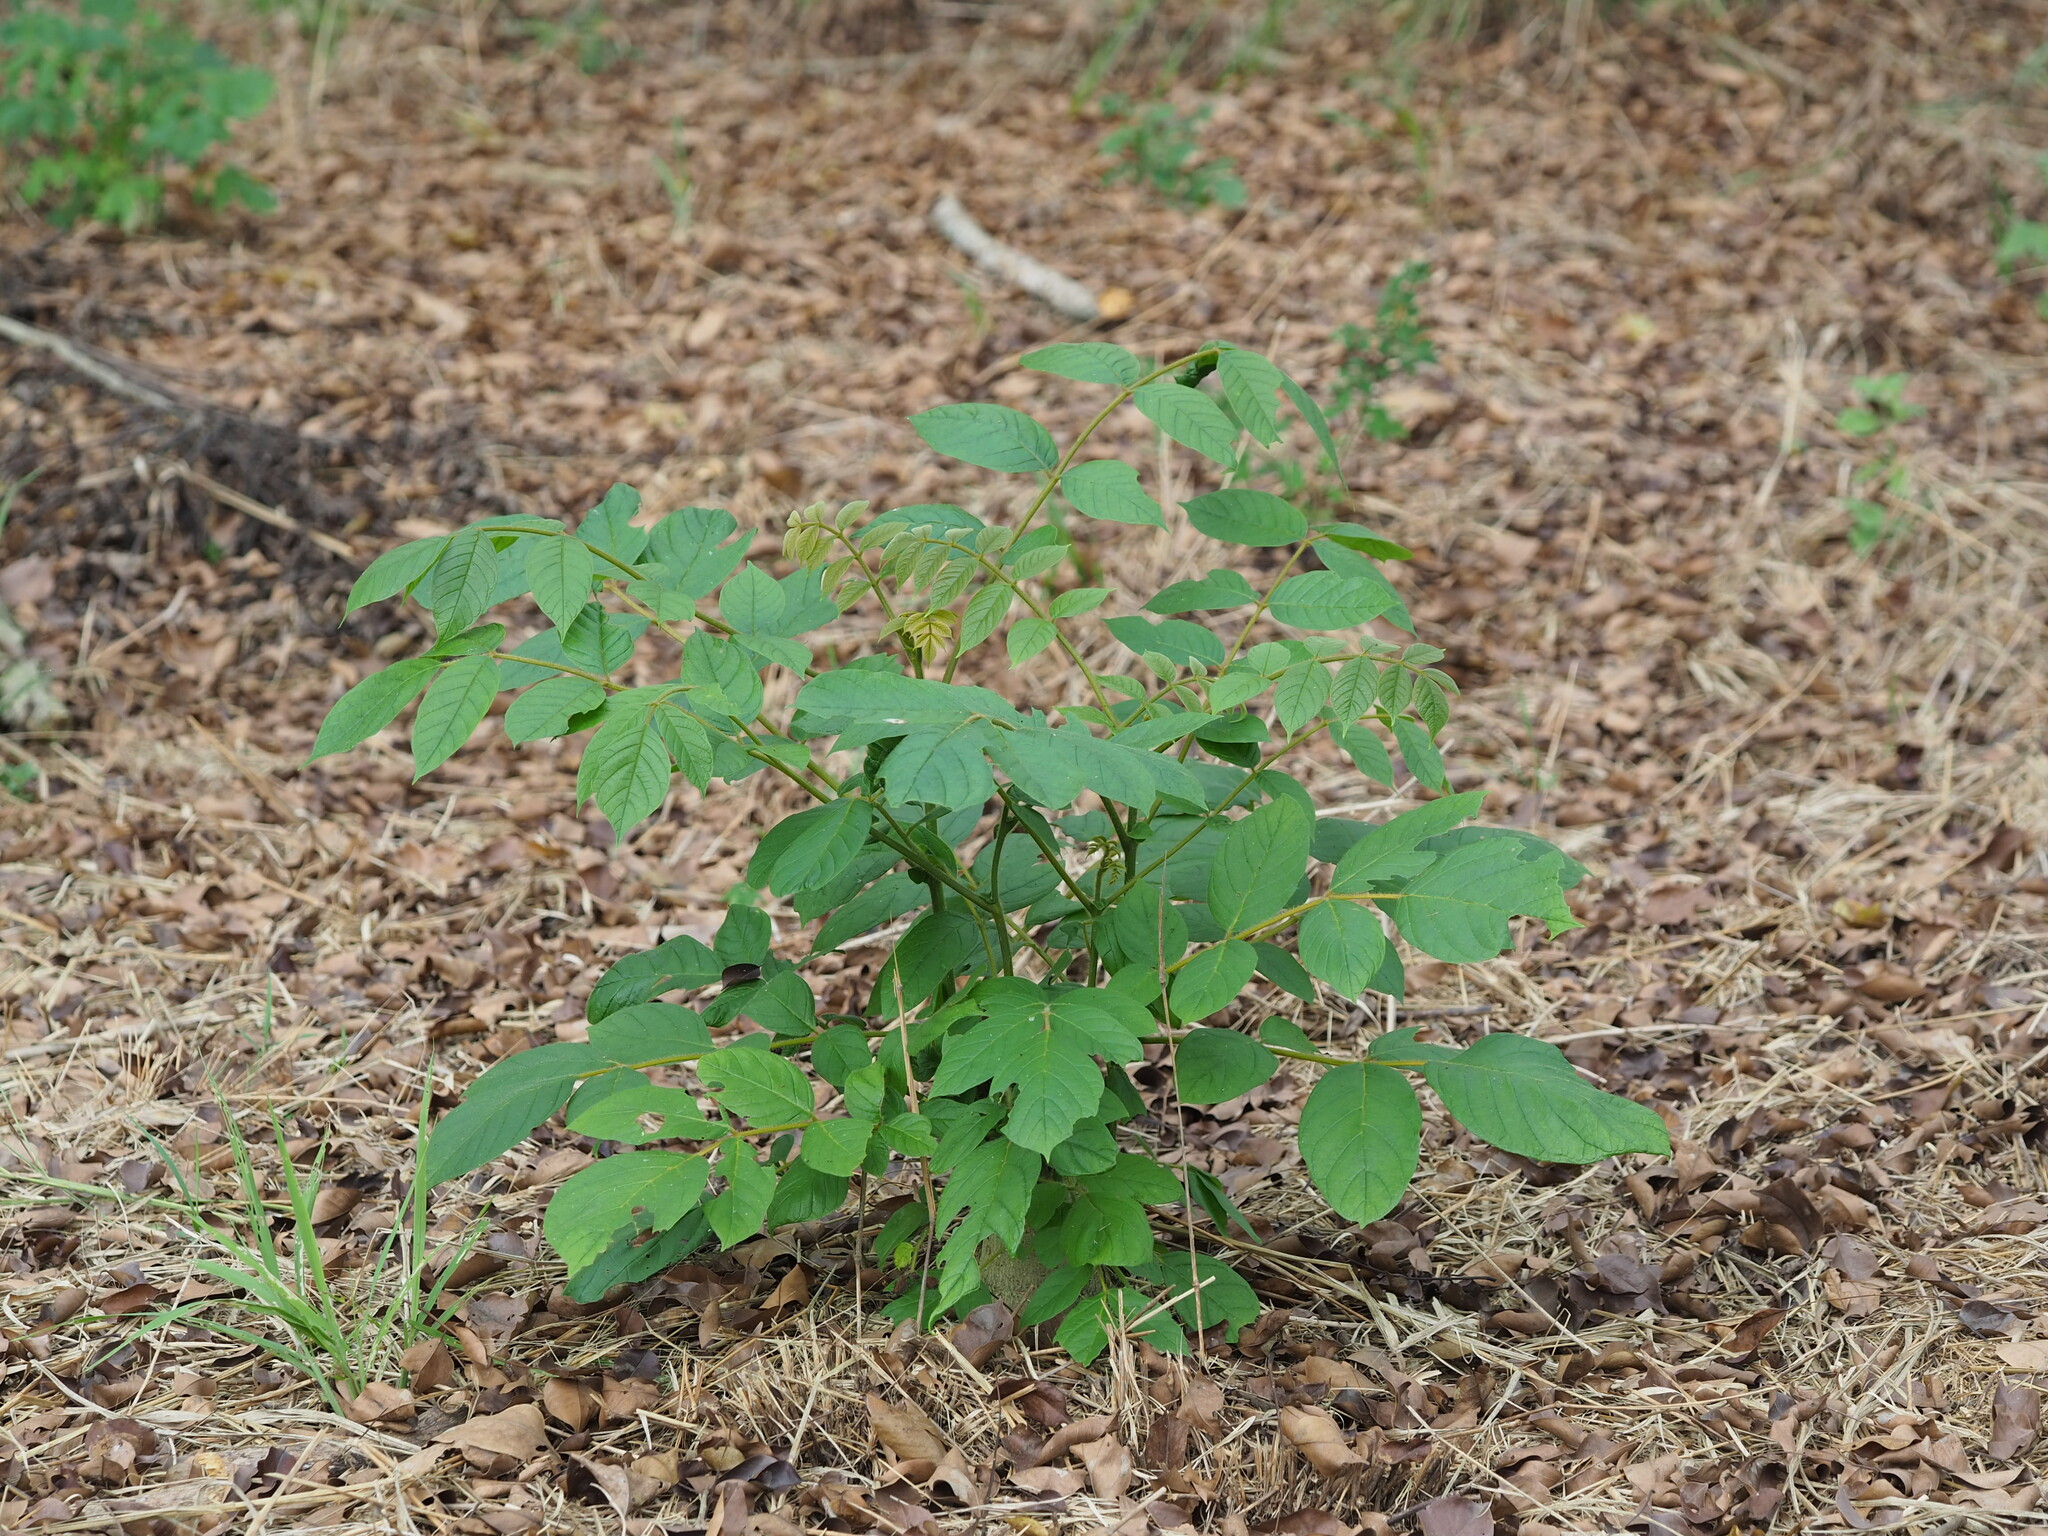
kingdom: Plantae
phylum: Tracheophyta
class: Magnoliopsida
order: Lamiales
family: Bignoniaceae
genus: Spathodea
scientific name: Spathodea campanulata
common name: African tuliptree
